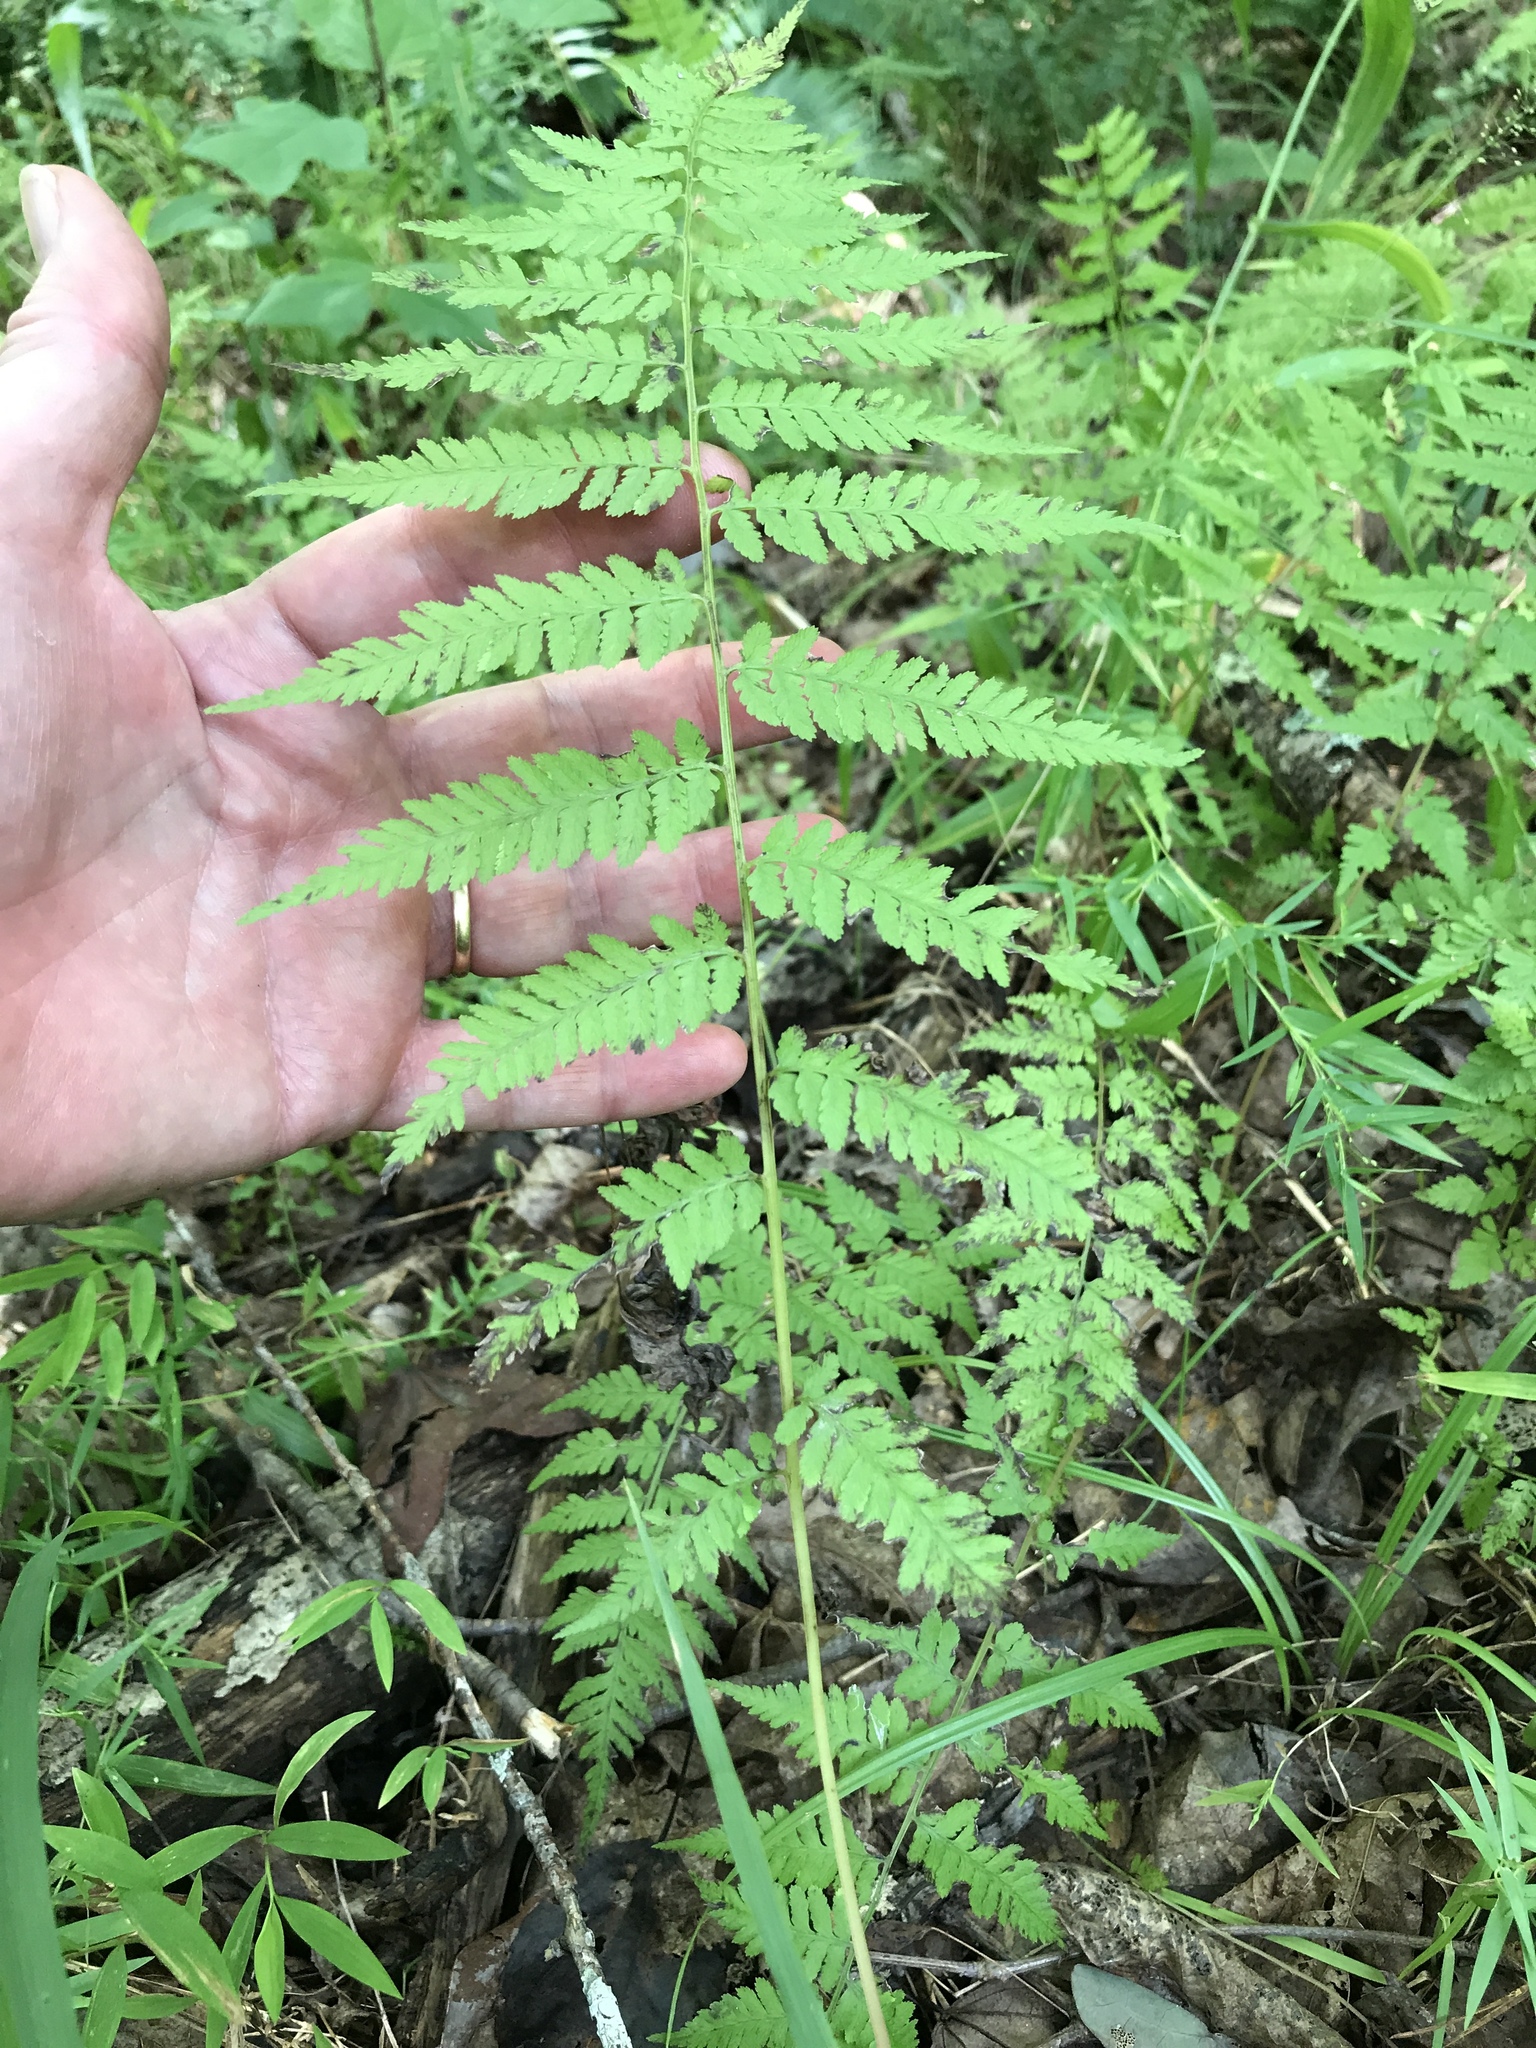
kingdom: Plantae
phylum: Tracheophyta
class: Polypodiopsida
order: Polypodiales
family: Athyriaceae
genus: Athyrium
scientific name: Athyrium asplenioides
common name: Southern lady fern
